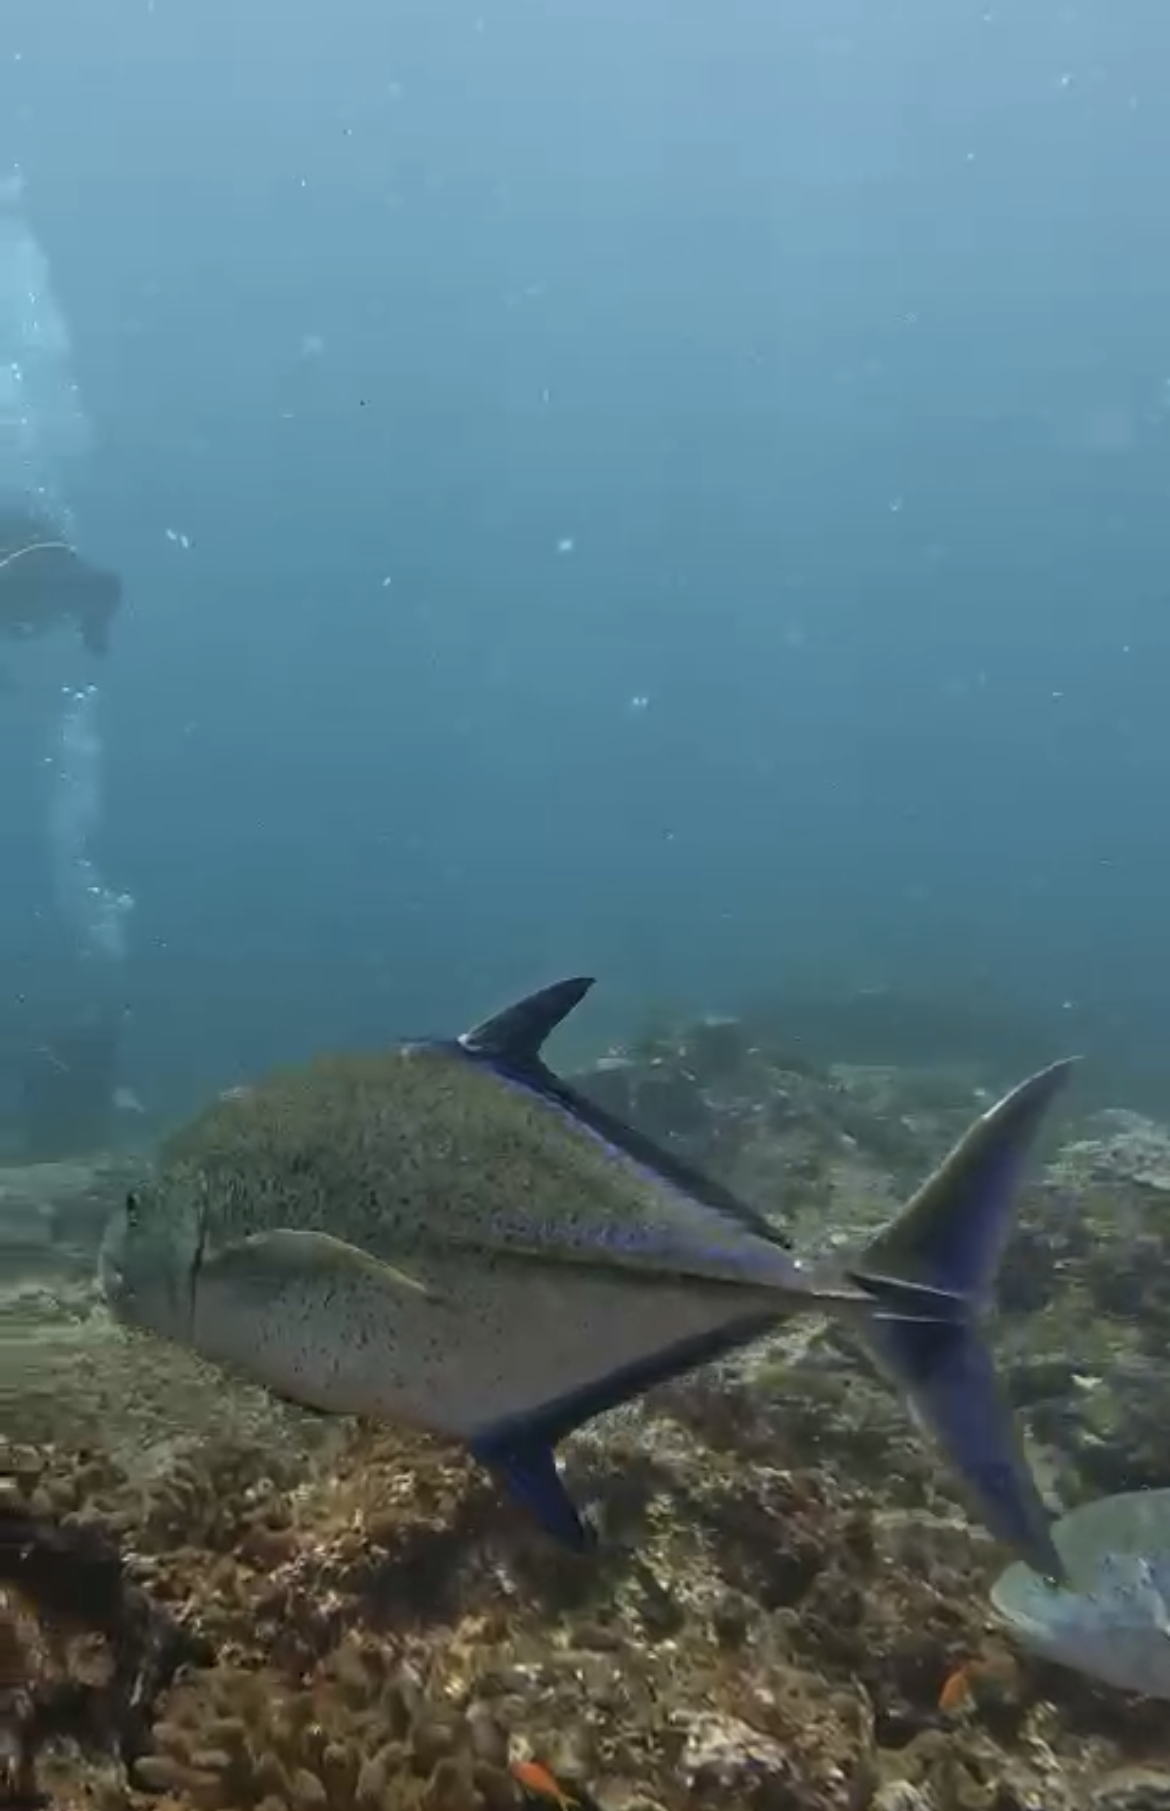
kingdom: Animalia
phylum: Chordata
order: Perciformes
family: Carangidae
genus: Caranx
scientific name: Caranx melampygus
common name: Bluefin trevally
